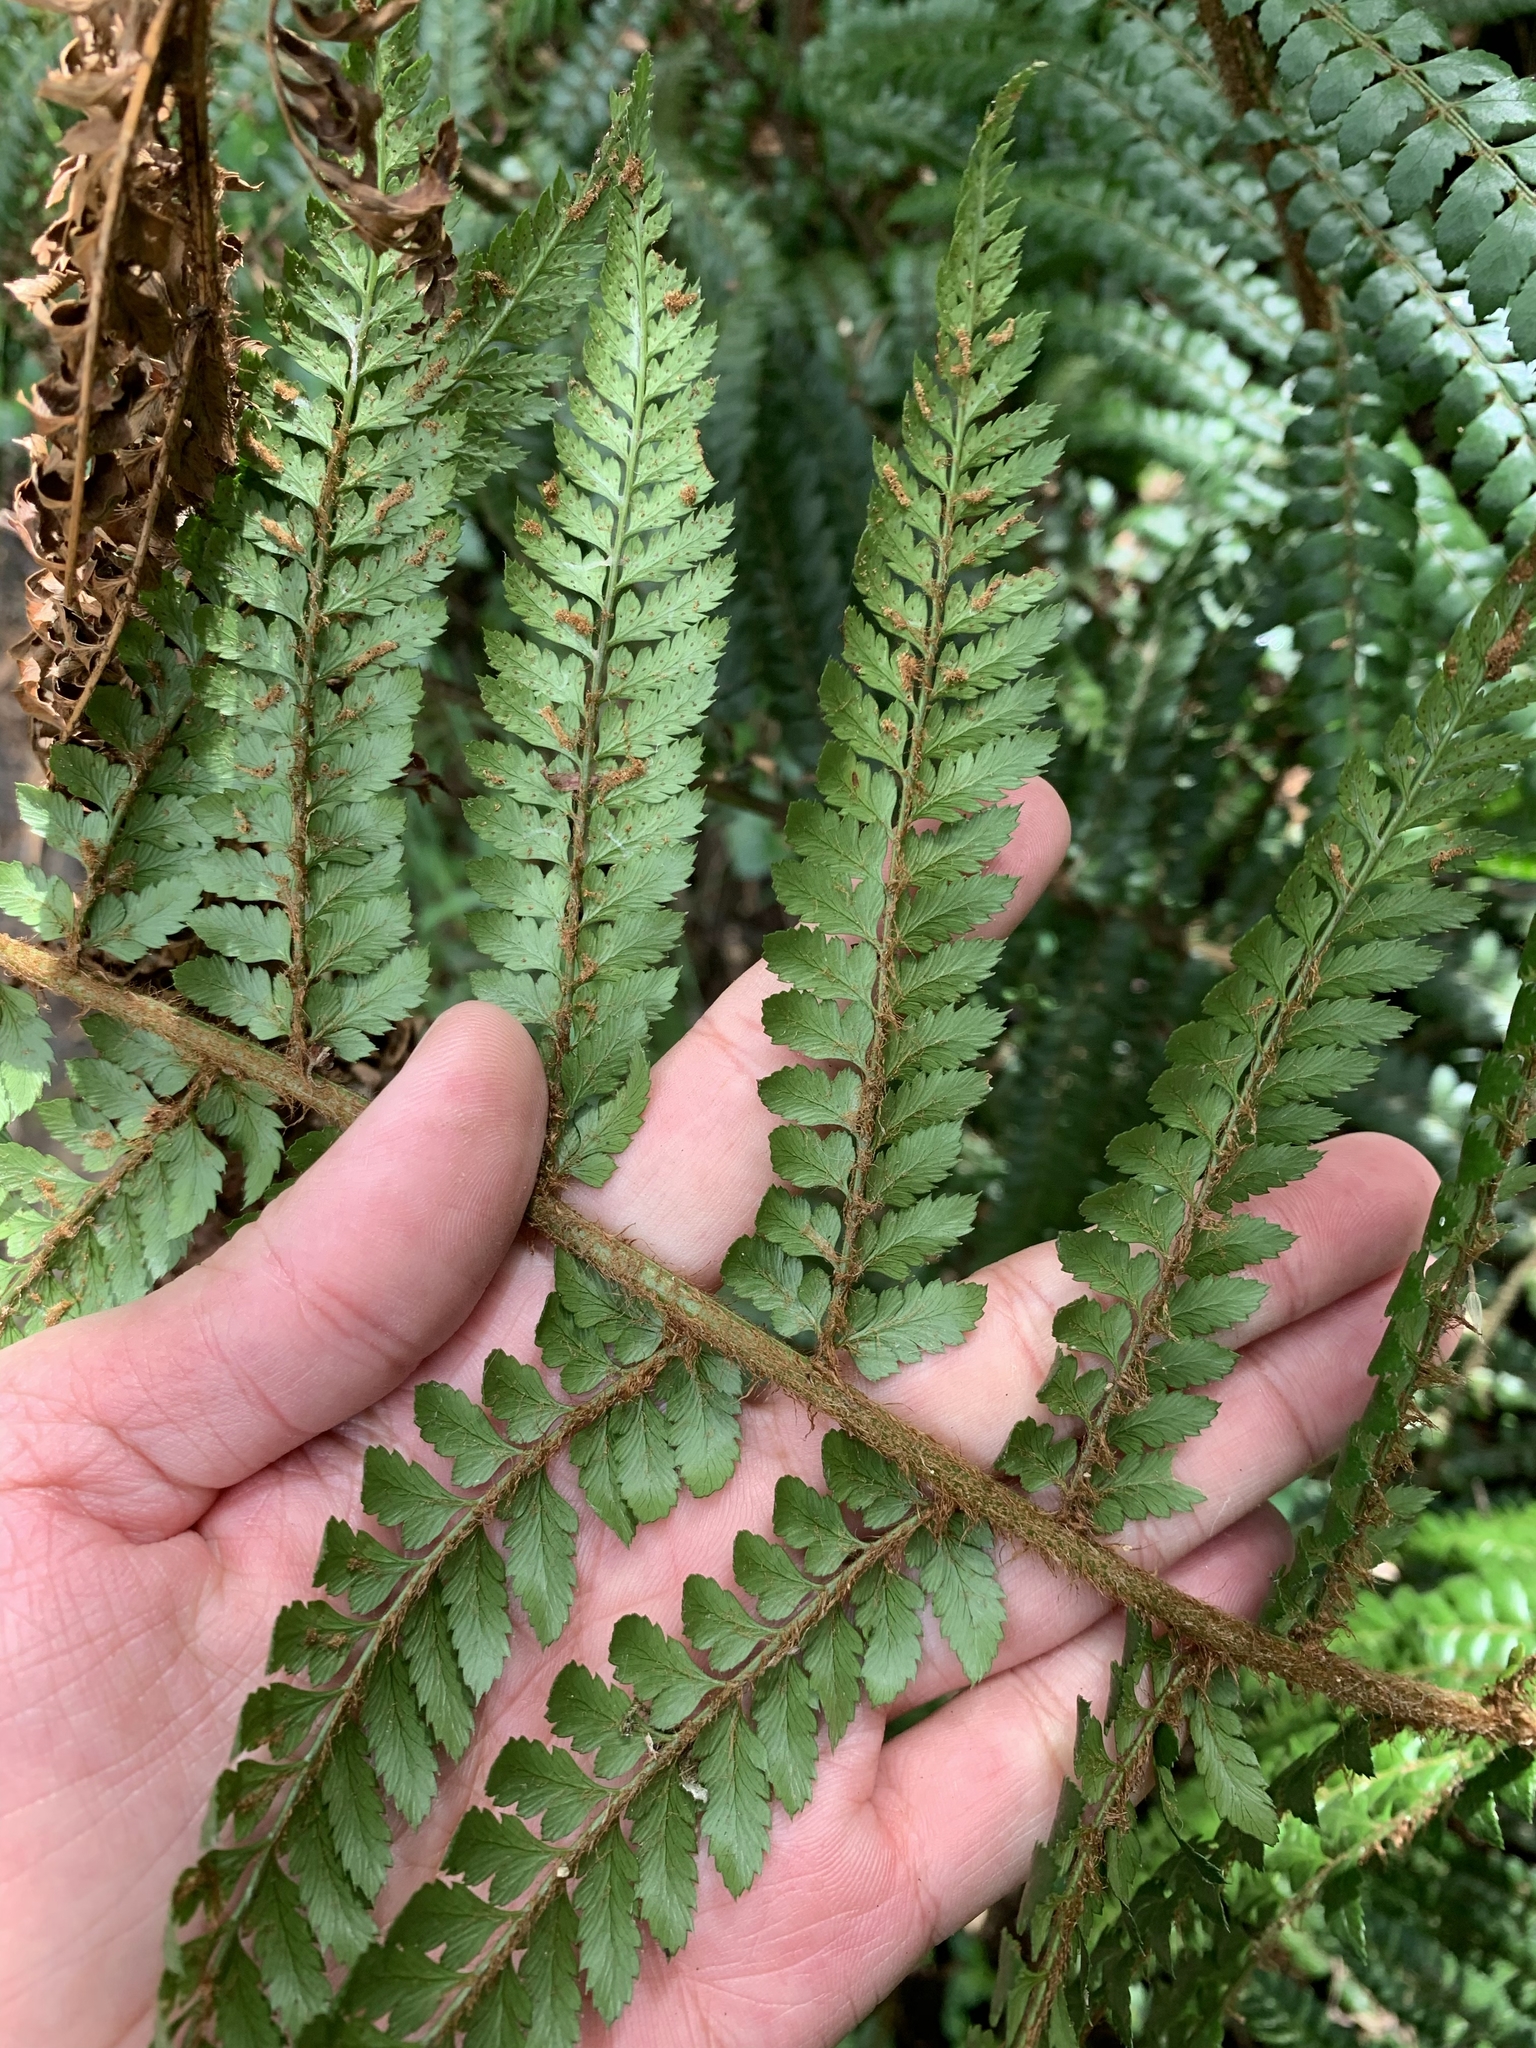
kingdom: Plantae
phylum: Tracheophyta
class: Polypodiopsida
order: Polypodiales
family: Dryopteridaceae
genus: Polystichum
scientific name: Polystichum proliferum
